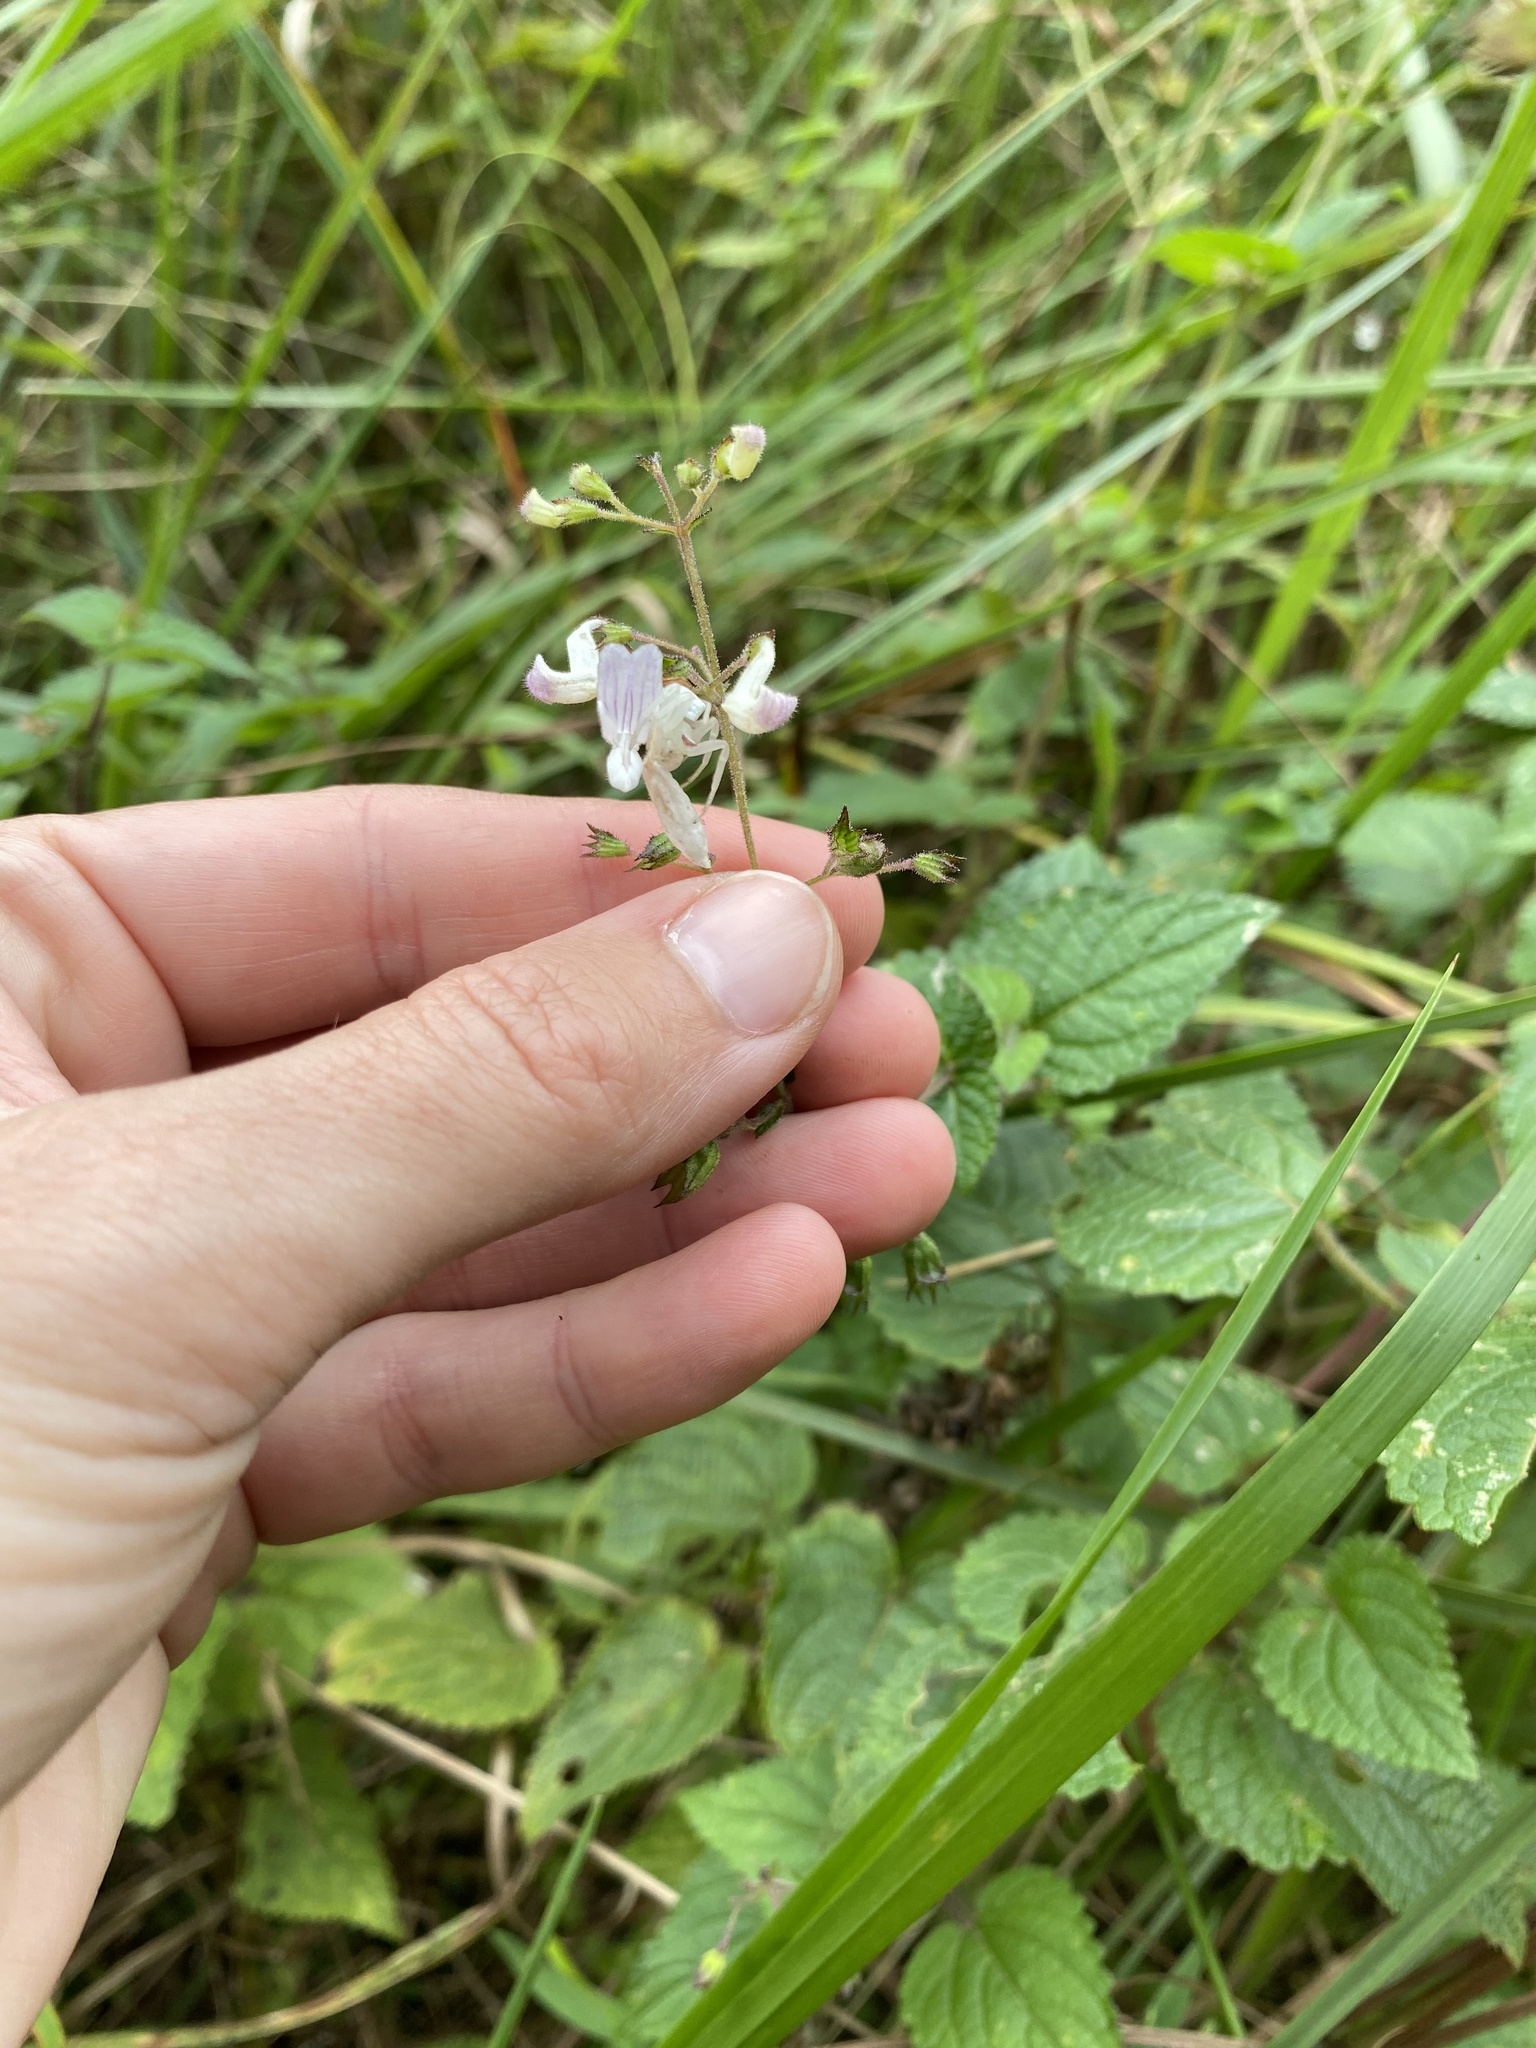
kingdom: Plantae
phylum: Tracheophyta
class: Magnoliopsida
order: Lamiales
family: Lamiaceae
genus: Equilabium
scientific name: Equilabium laxiflorum
